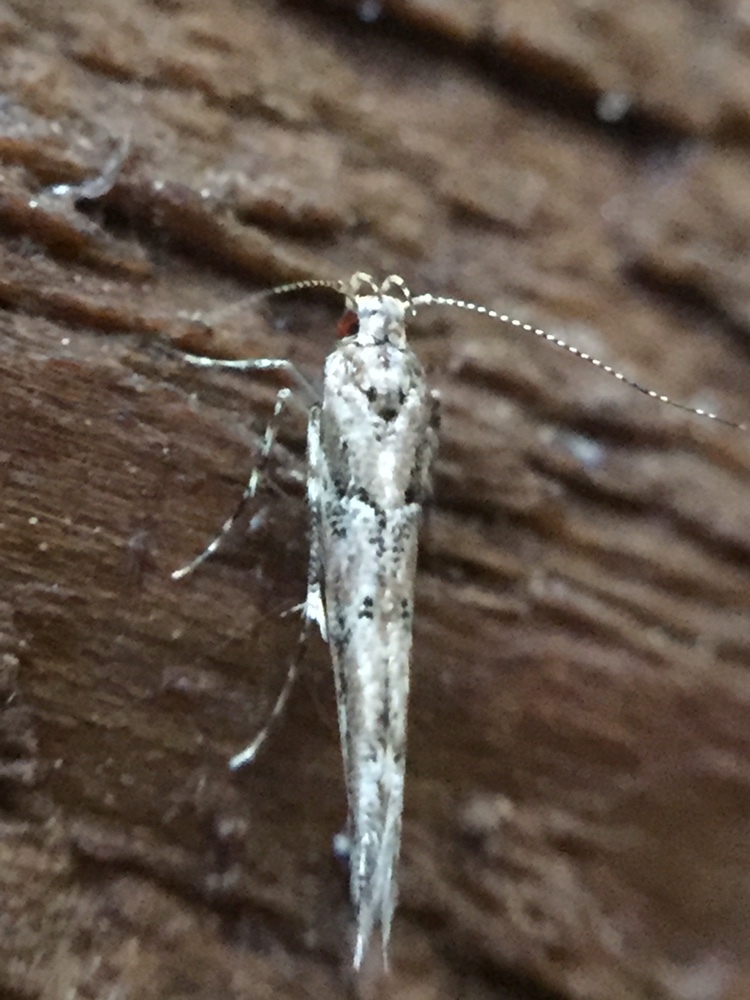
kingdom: Animalia
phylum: Arthropoda
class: Insecta
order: Lepidoptera
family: Cosmopterigidae
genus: Pyroderces
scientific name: Pyroderces aellotricha
